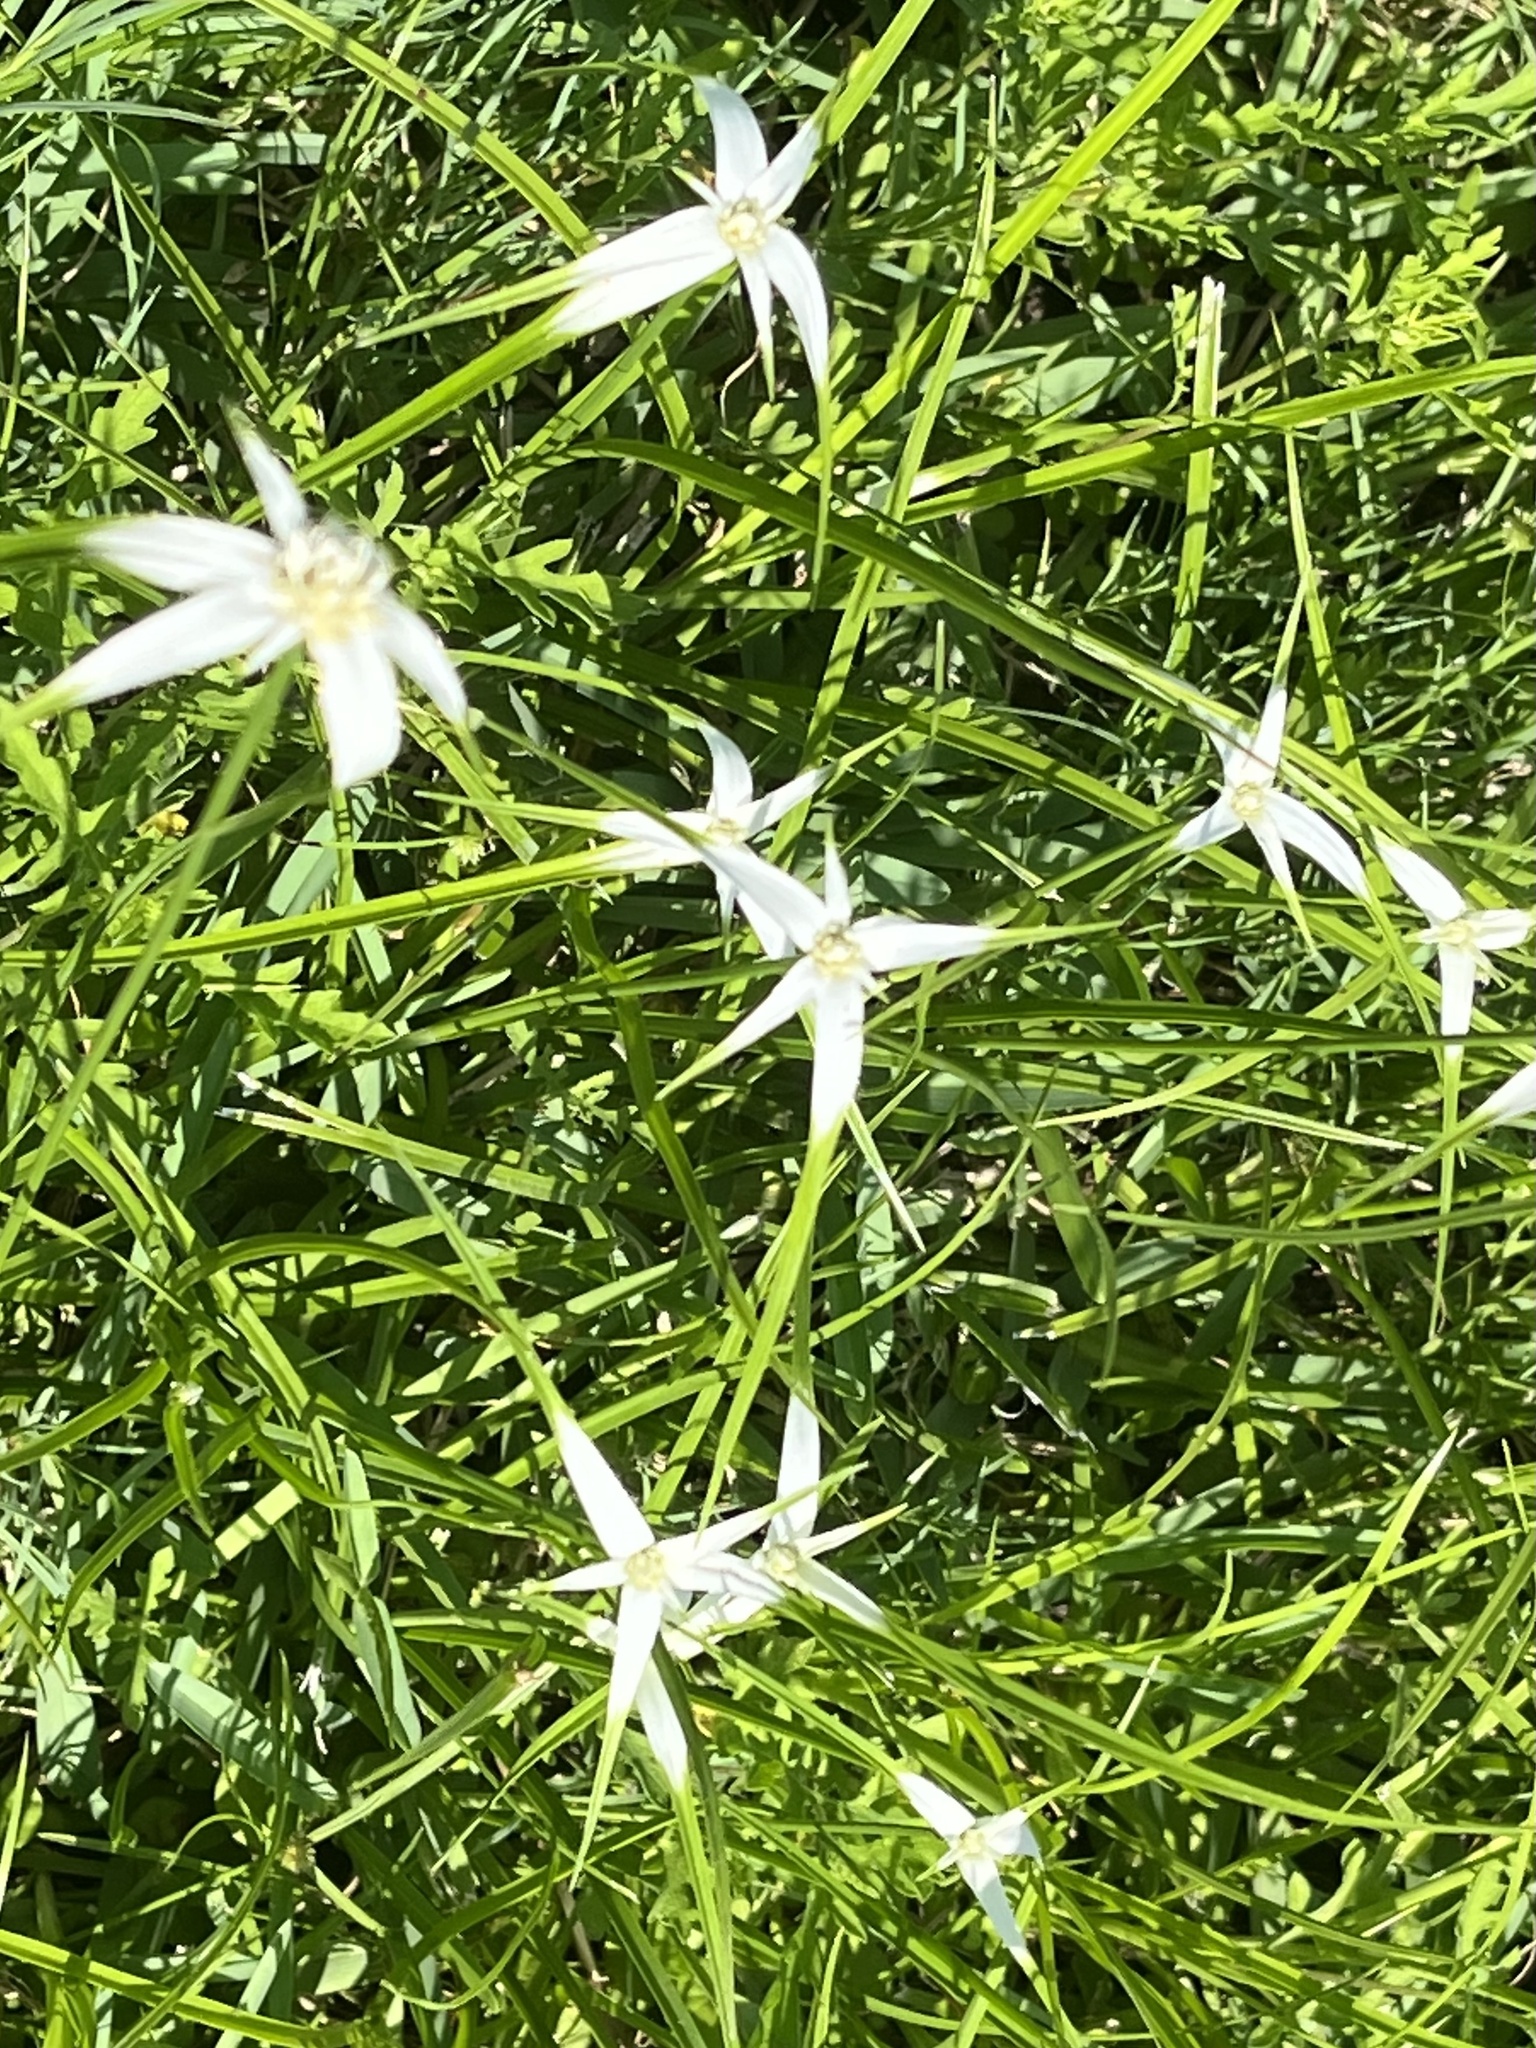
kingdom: Plantae
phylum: Tracheophyta
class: Liliopsida
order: Poales
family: Cyperaceae
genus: Rhynchospora
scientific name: Rhynchospora colorata
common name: Star sedge
